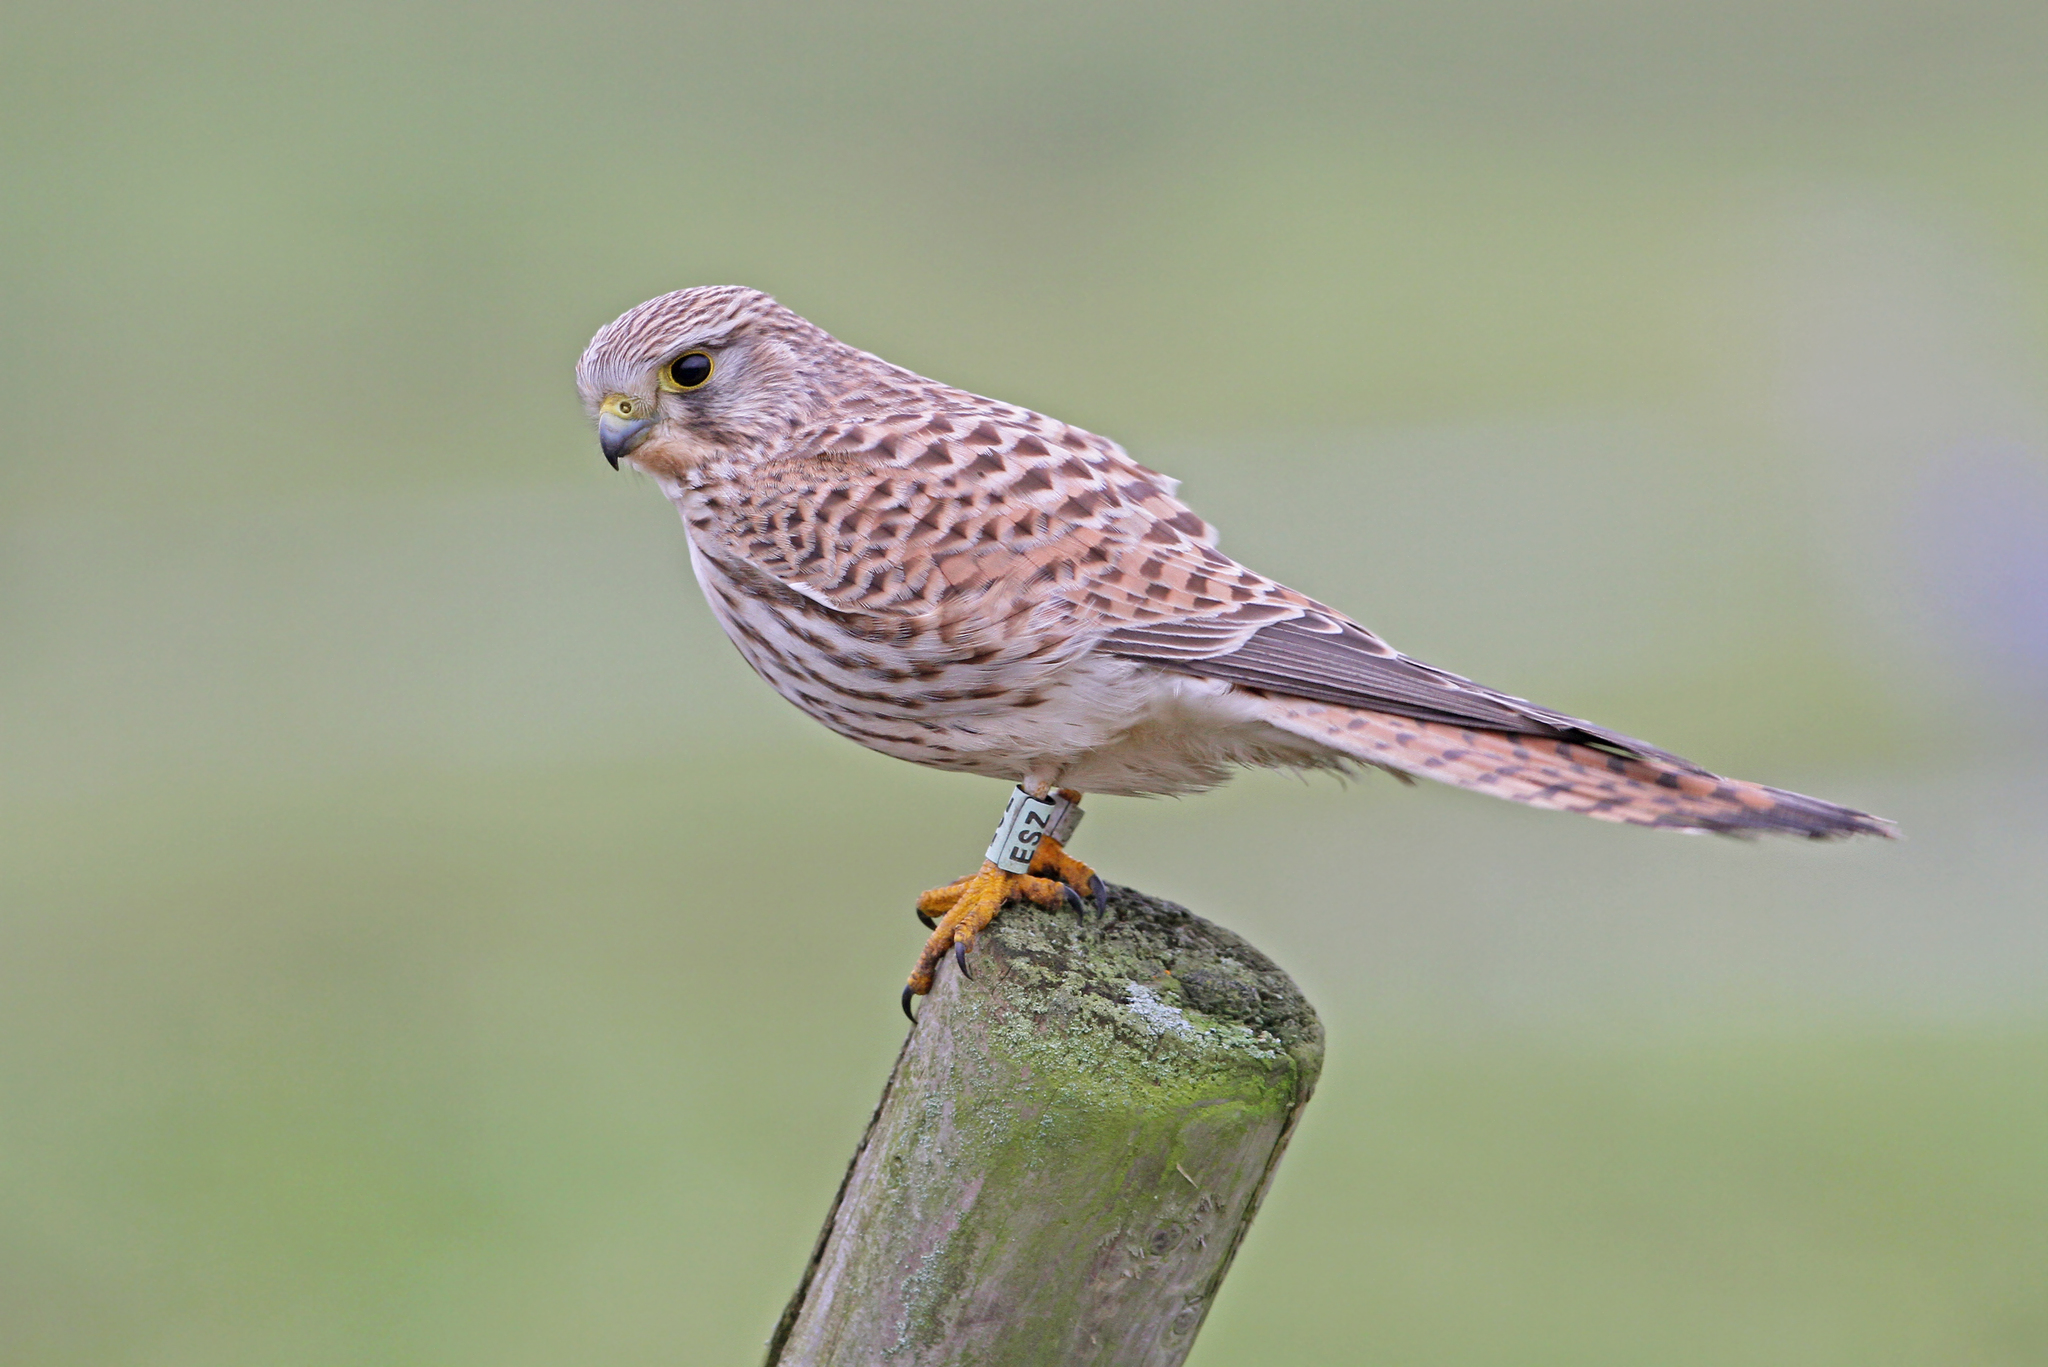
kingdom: Animalia
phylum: Chordata
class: Aves
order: Falconiformes
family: Falconidae
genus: Falco
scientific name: Falco tinnunculus
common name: Common kestrel
